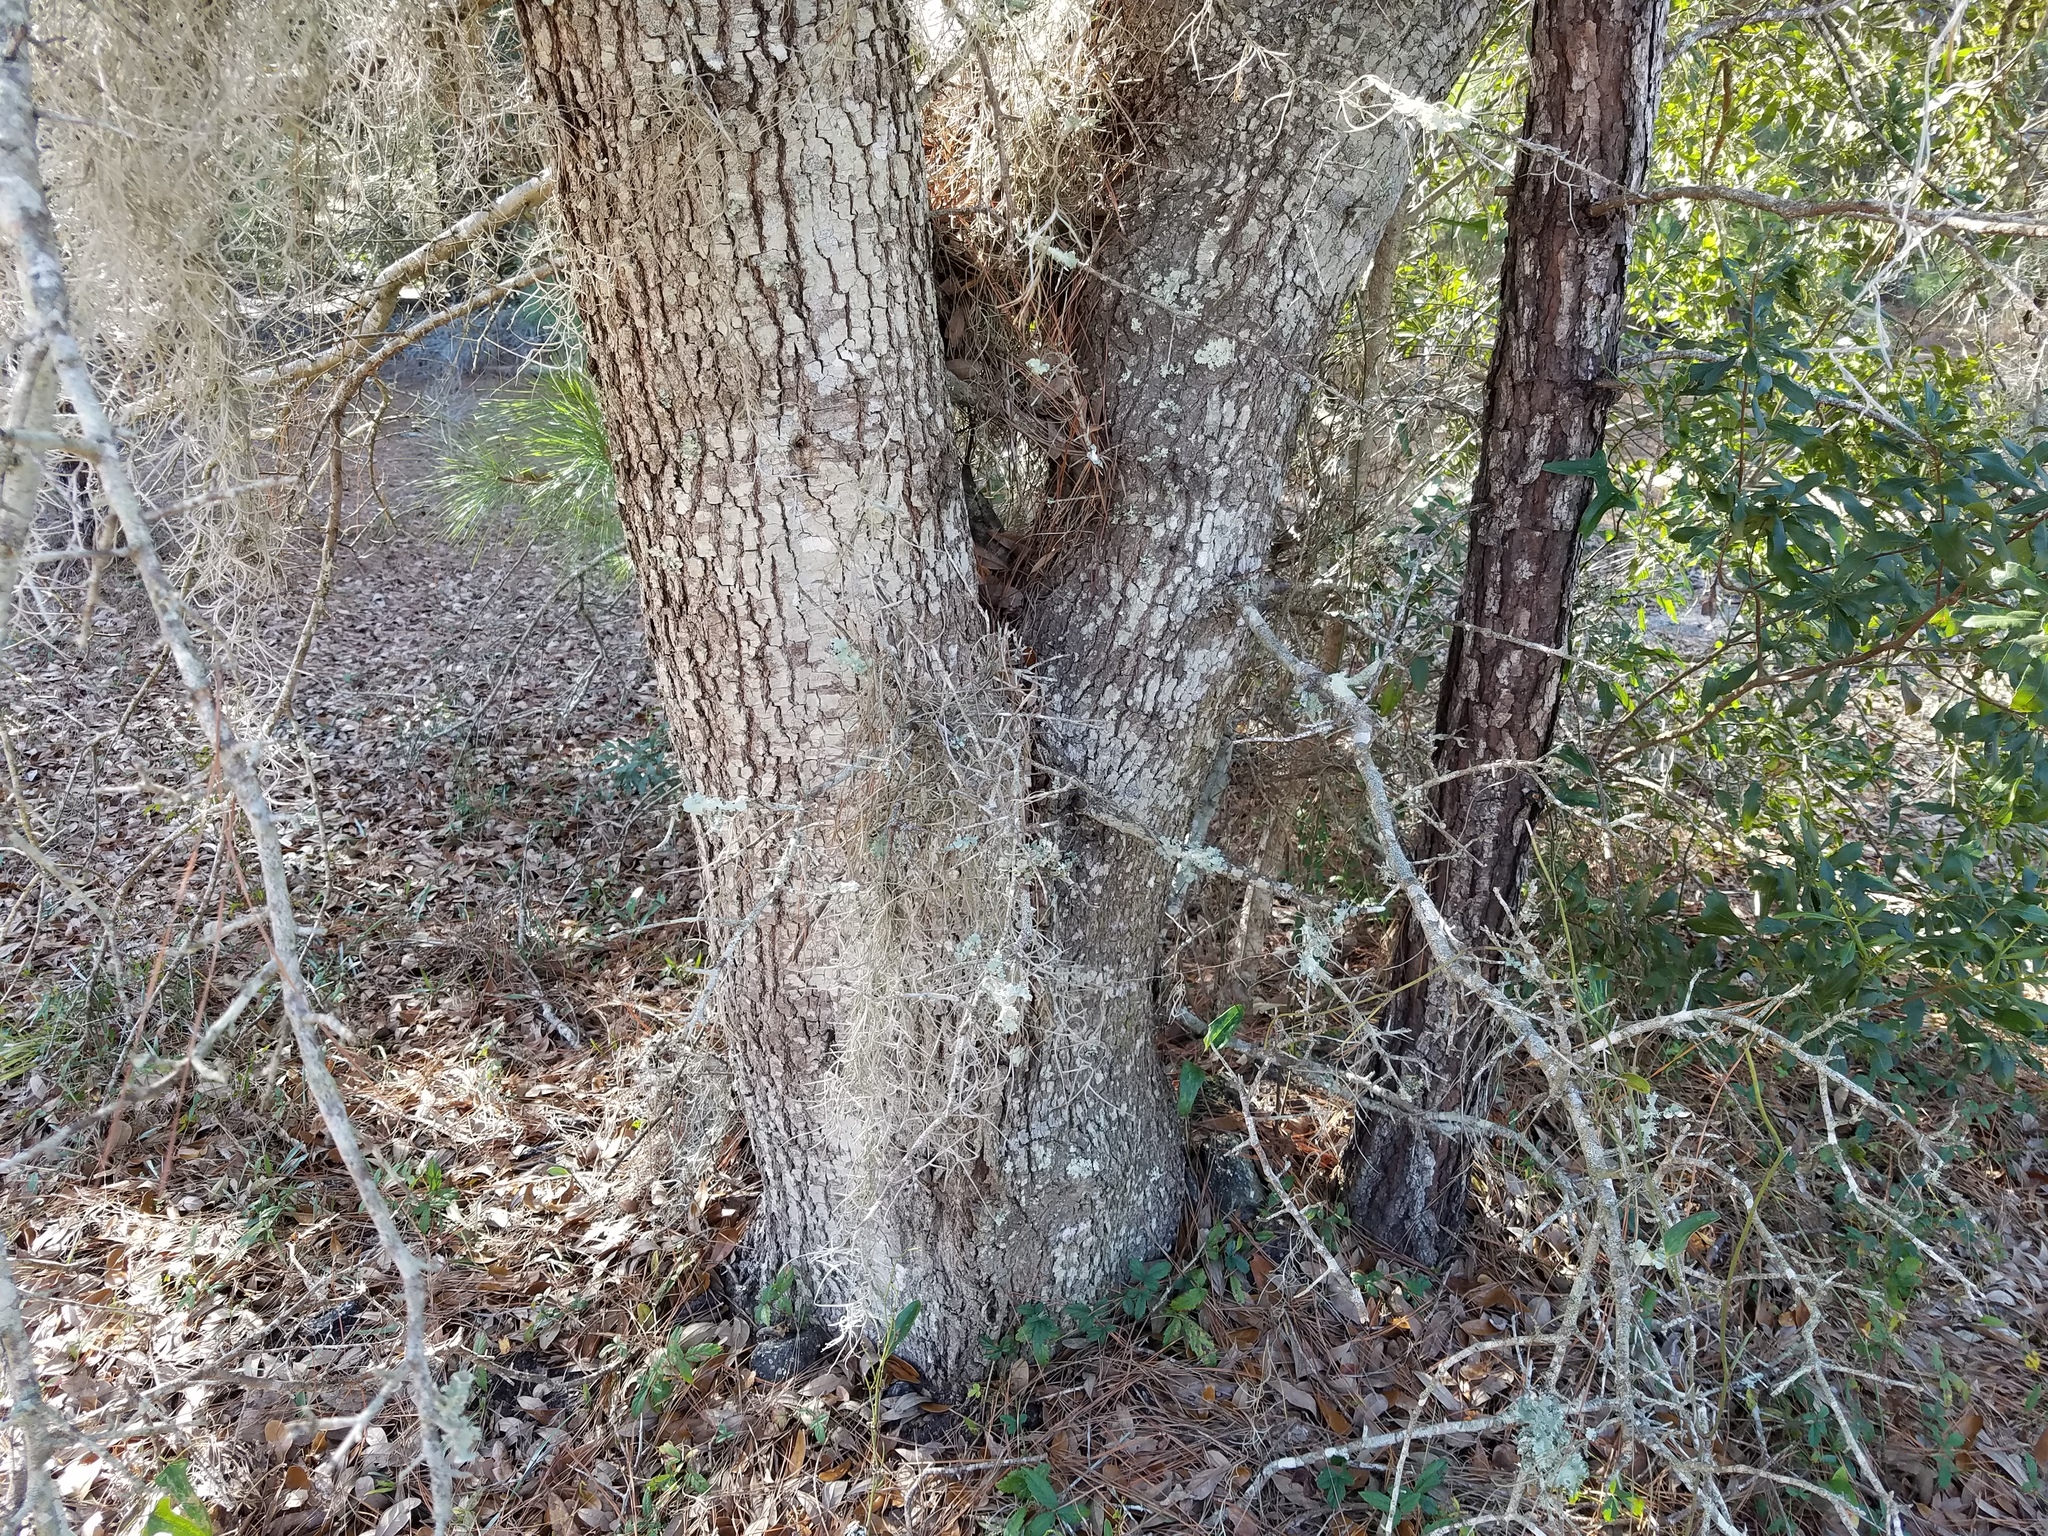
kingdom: Plantae
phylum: Tracheophyta
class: Magnoliopsida
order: Fagales
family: Fagaceae
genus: Quercus
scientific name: Quercus virginiana
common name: Southern live oak
